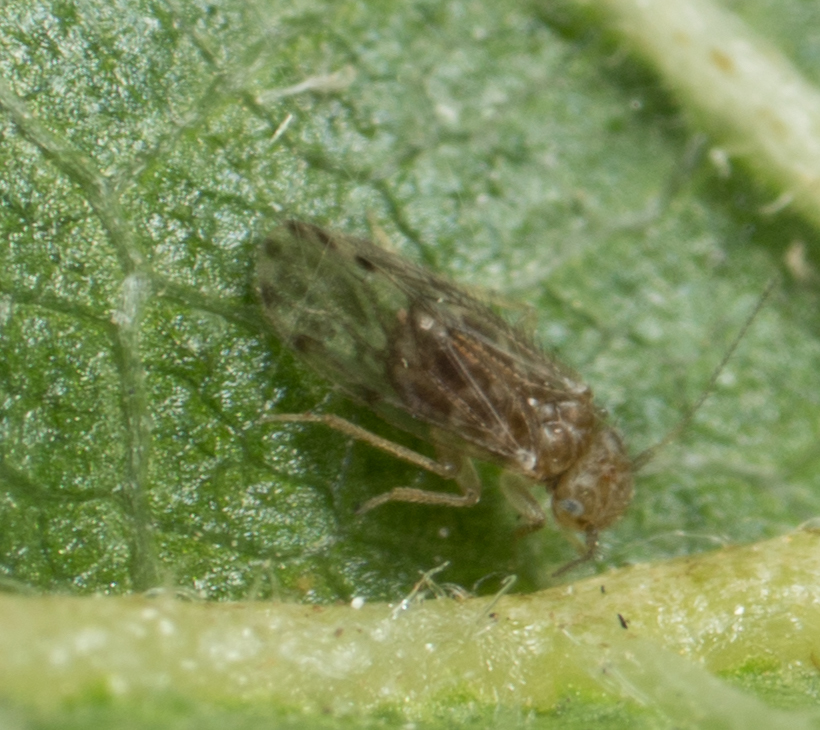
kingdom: Animalia
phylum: Arthropoda
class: Insecta
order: Psocodea
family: Ectopsocidae
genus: Ectopsocus
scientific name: Ectopsocus strauchi
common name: Medium-sized bark louse
